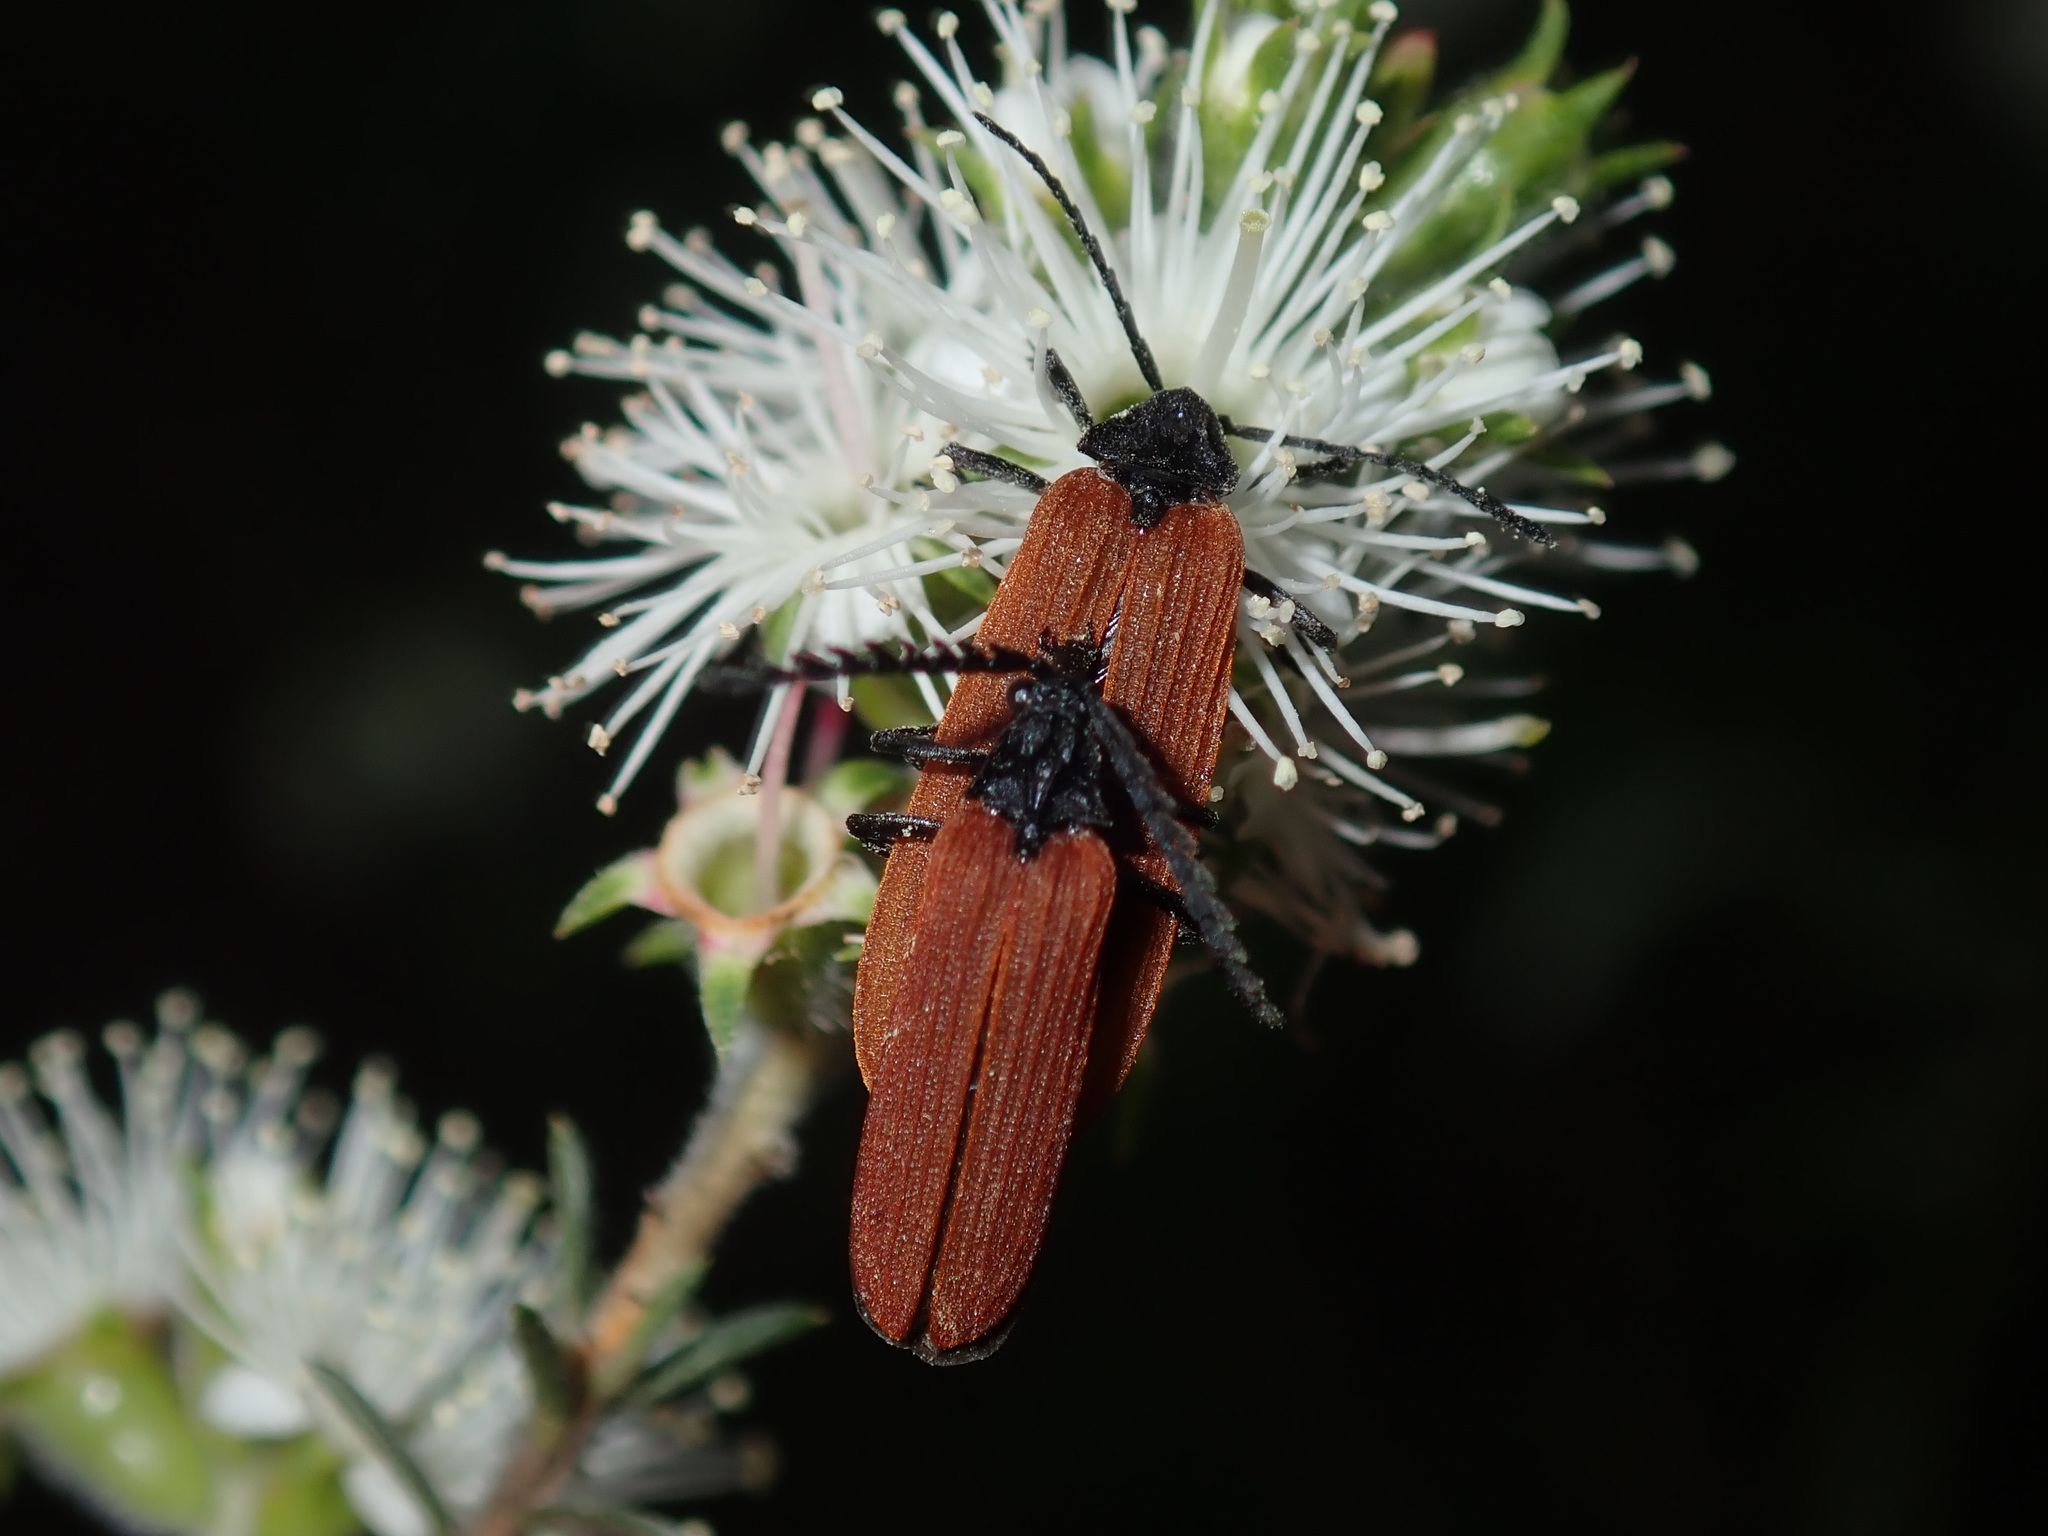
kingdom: Animalia
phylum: Arthropoda
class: Insecta
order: Coleoptera
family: Lycidae
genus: Porrostoma
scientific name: Porrostoma rhipidium
